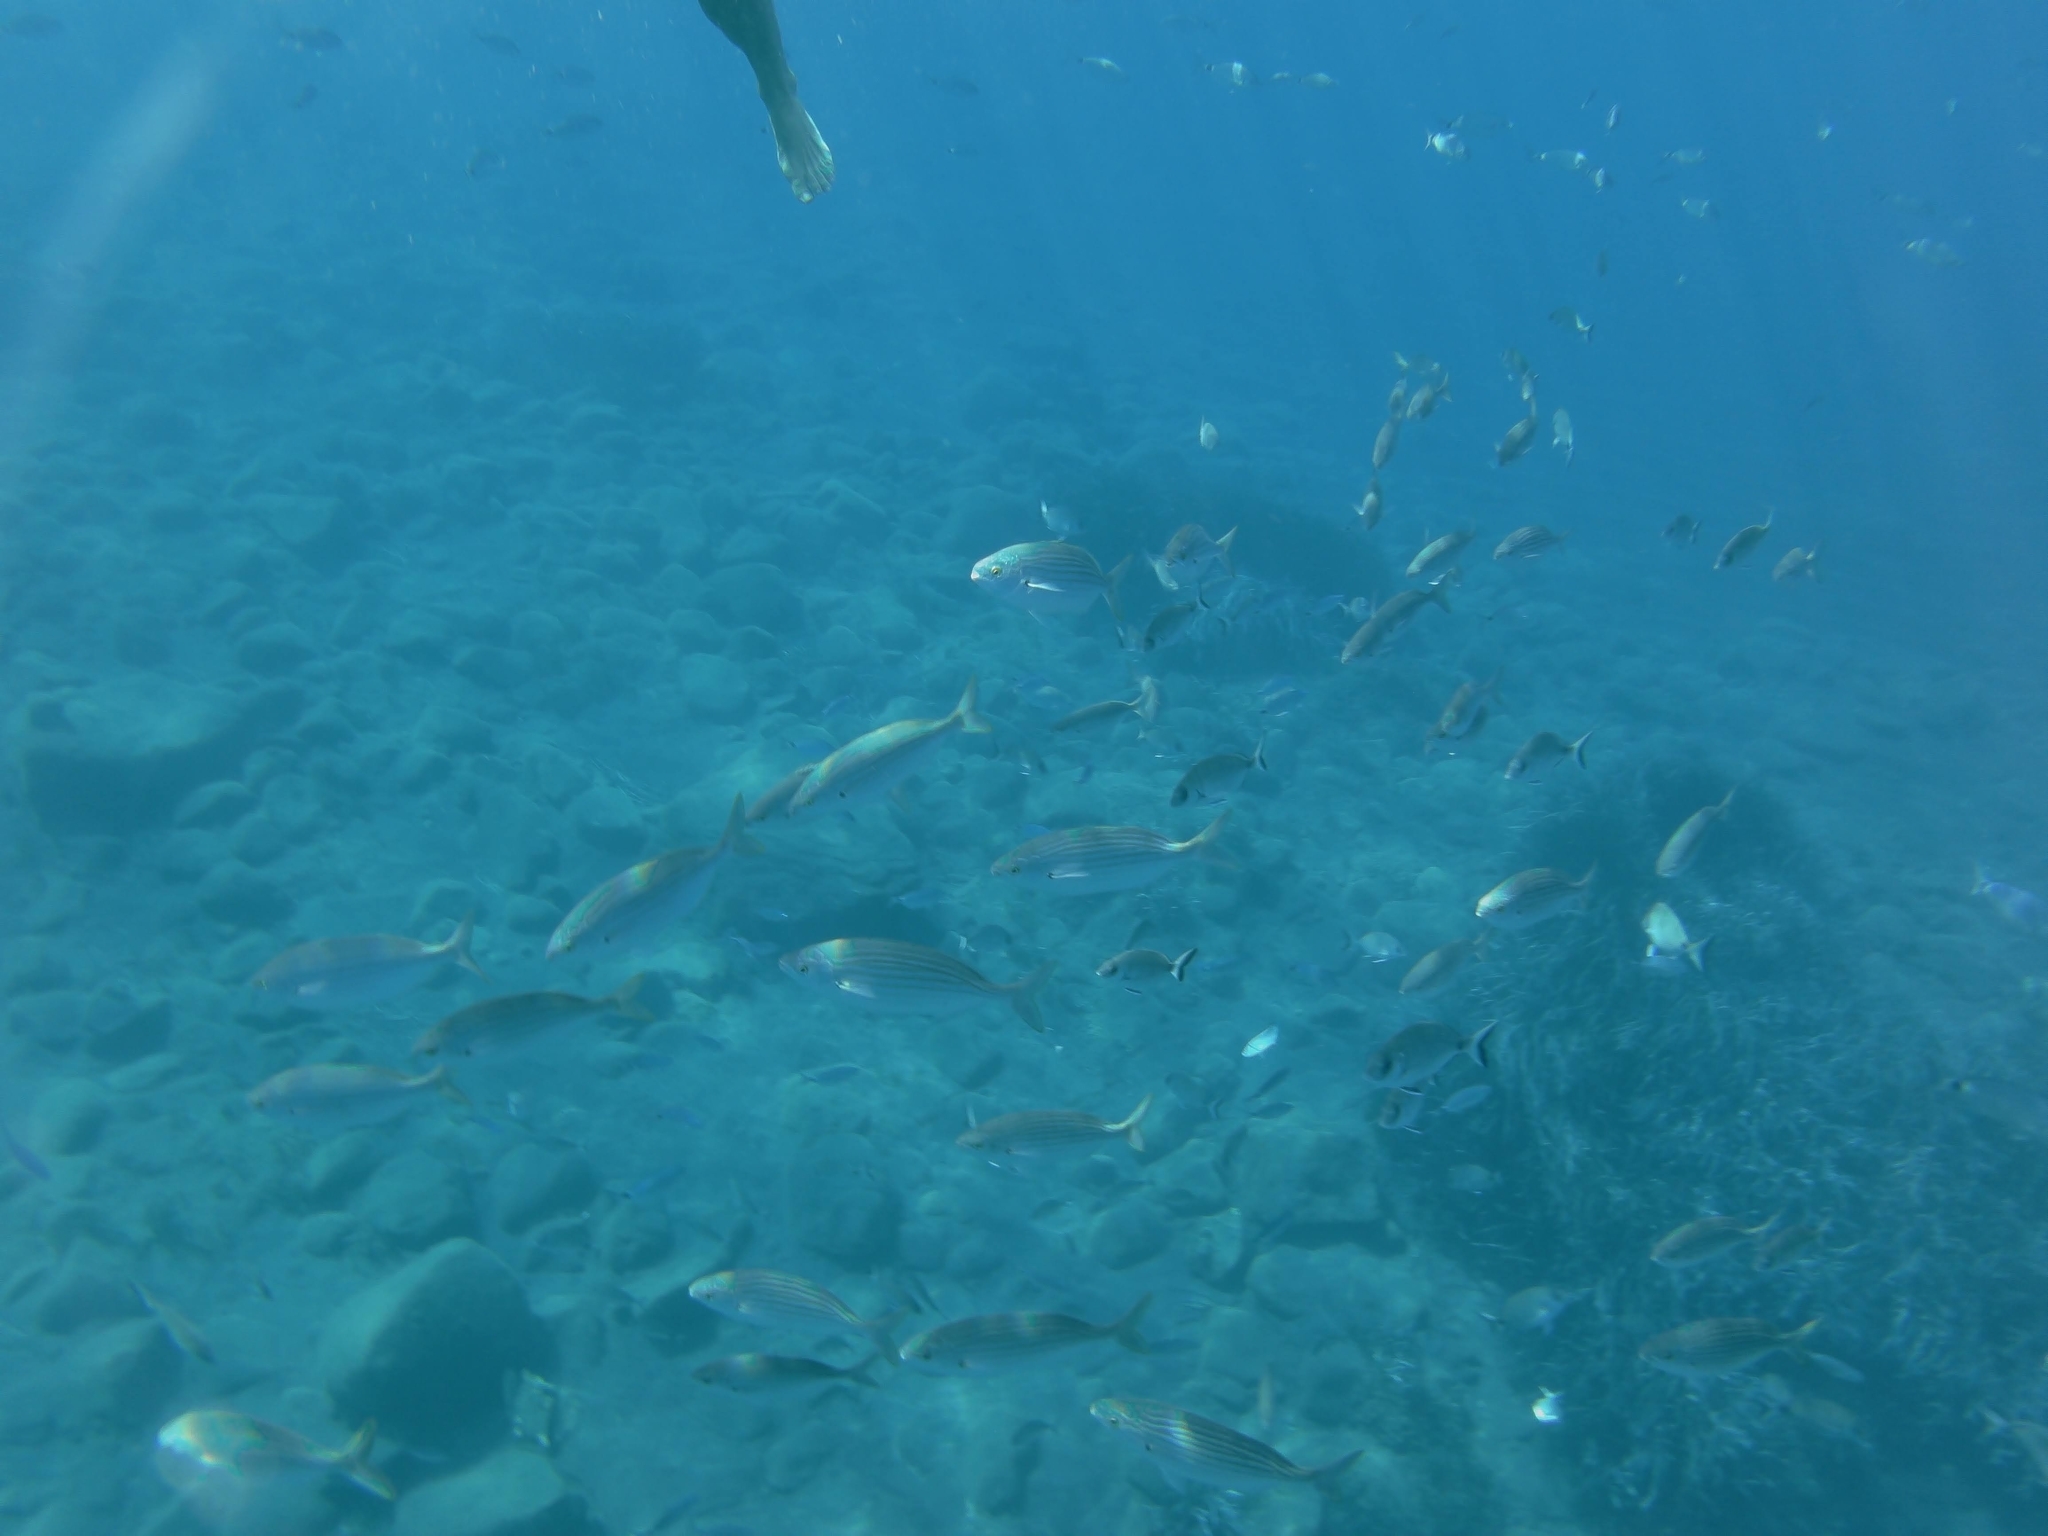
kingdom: Animalia
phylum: Chordata
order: Perciformes
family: Sparidae
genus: Sarpa
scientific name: Sarpa salpa
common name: Salema
